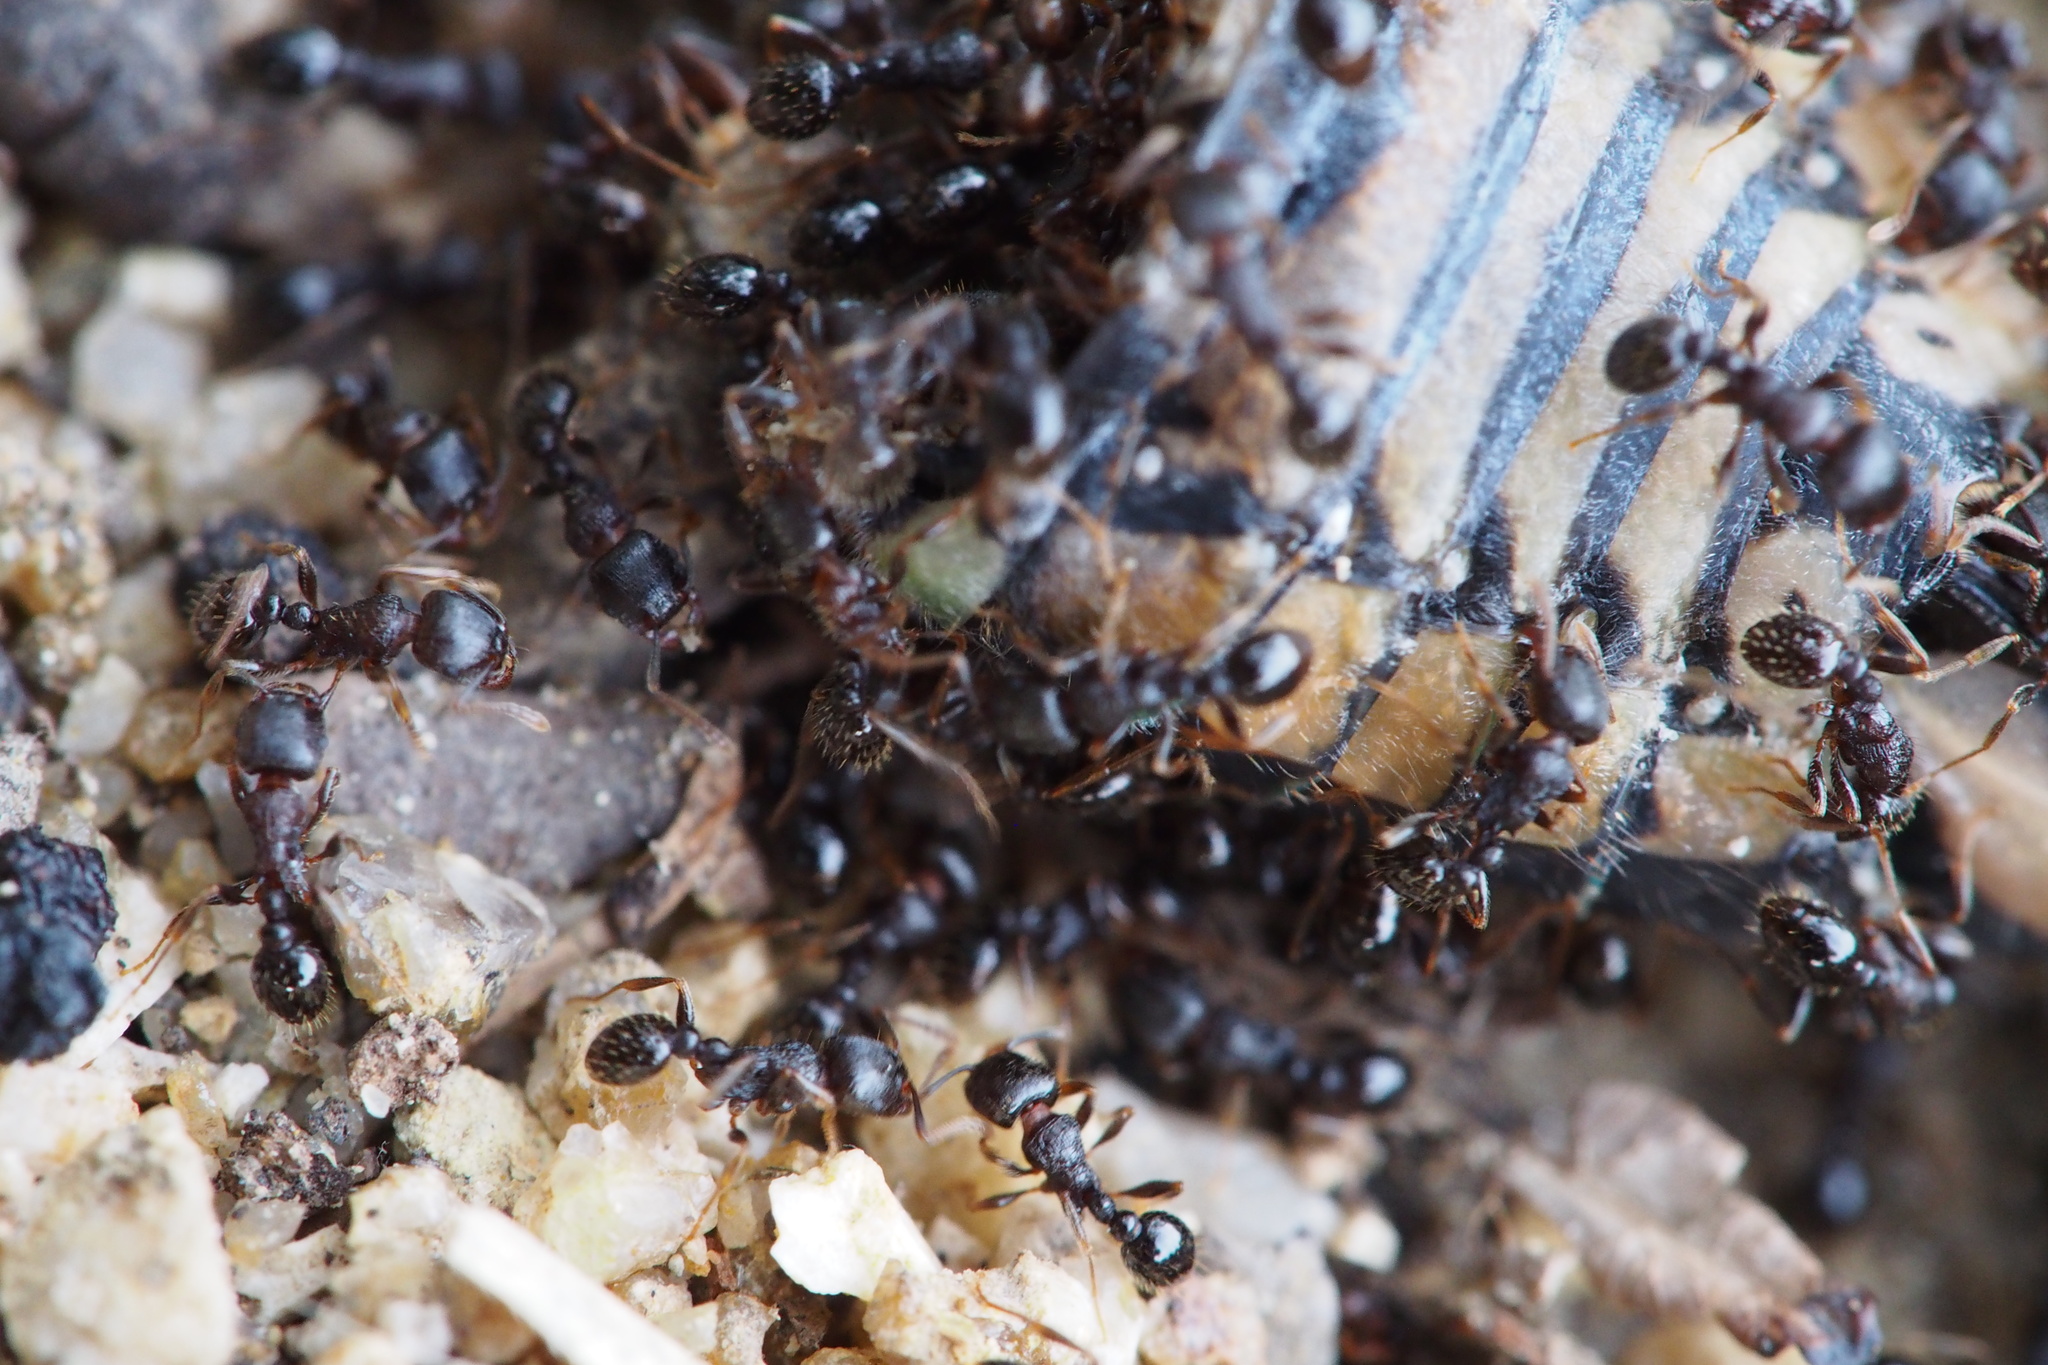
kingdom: Animalia
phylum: Arthropoda
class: Insecta
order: Hymenoptera
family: Formicidae
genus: Tetramorium
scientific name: Tetramorium tsushimae
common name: Ant
